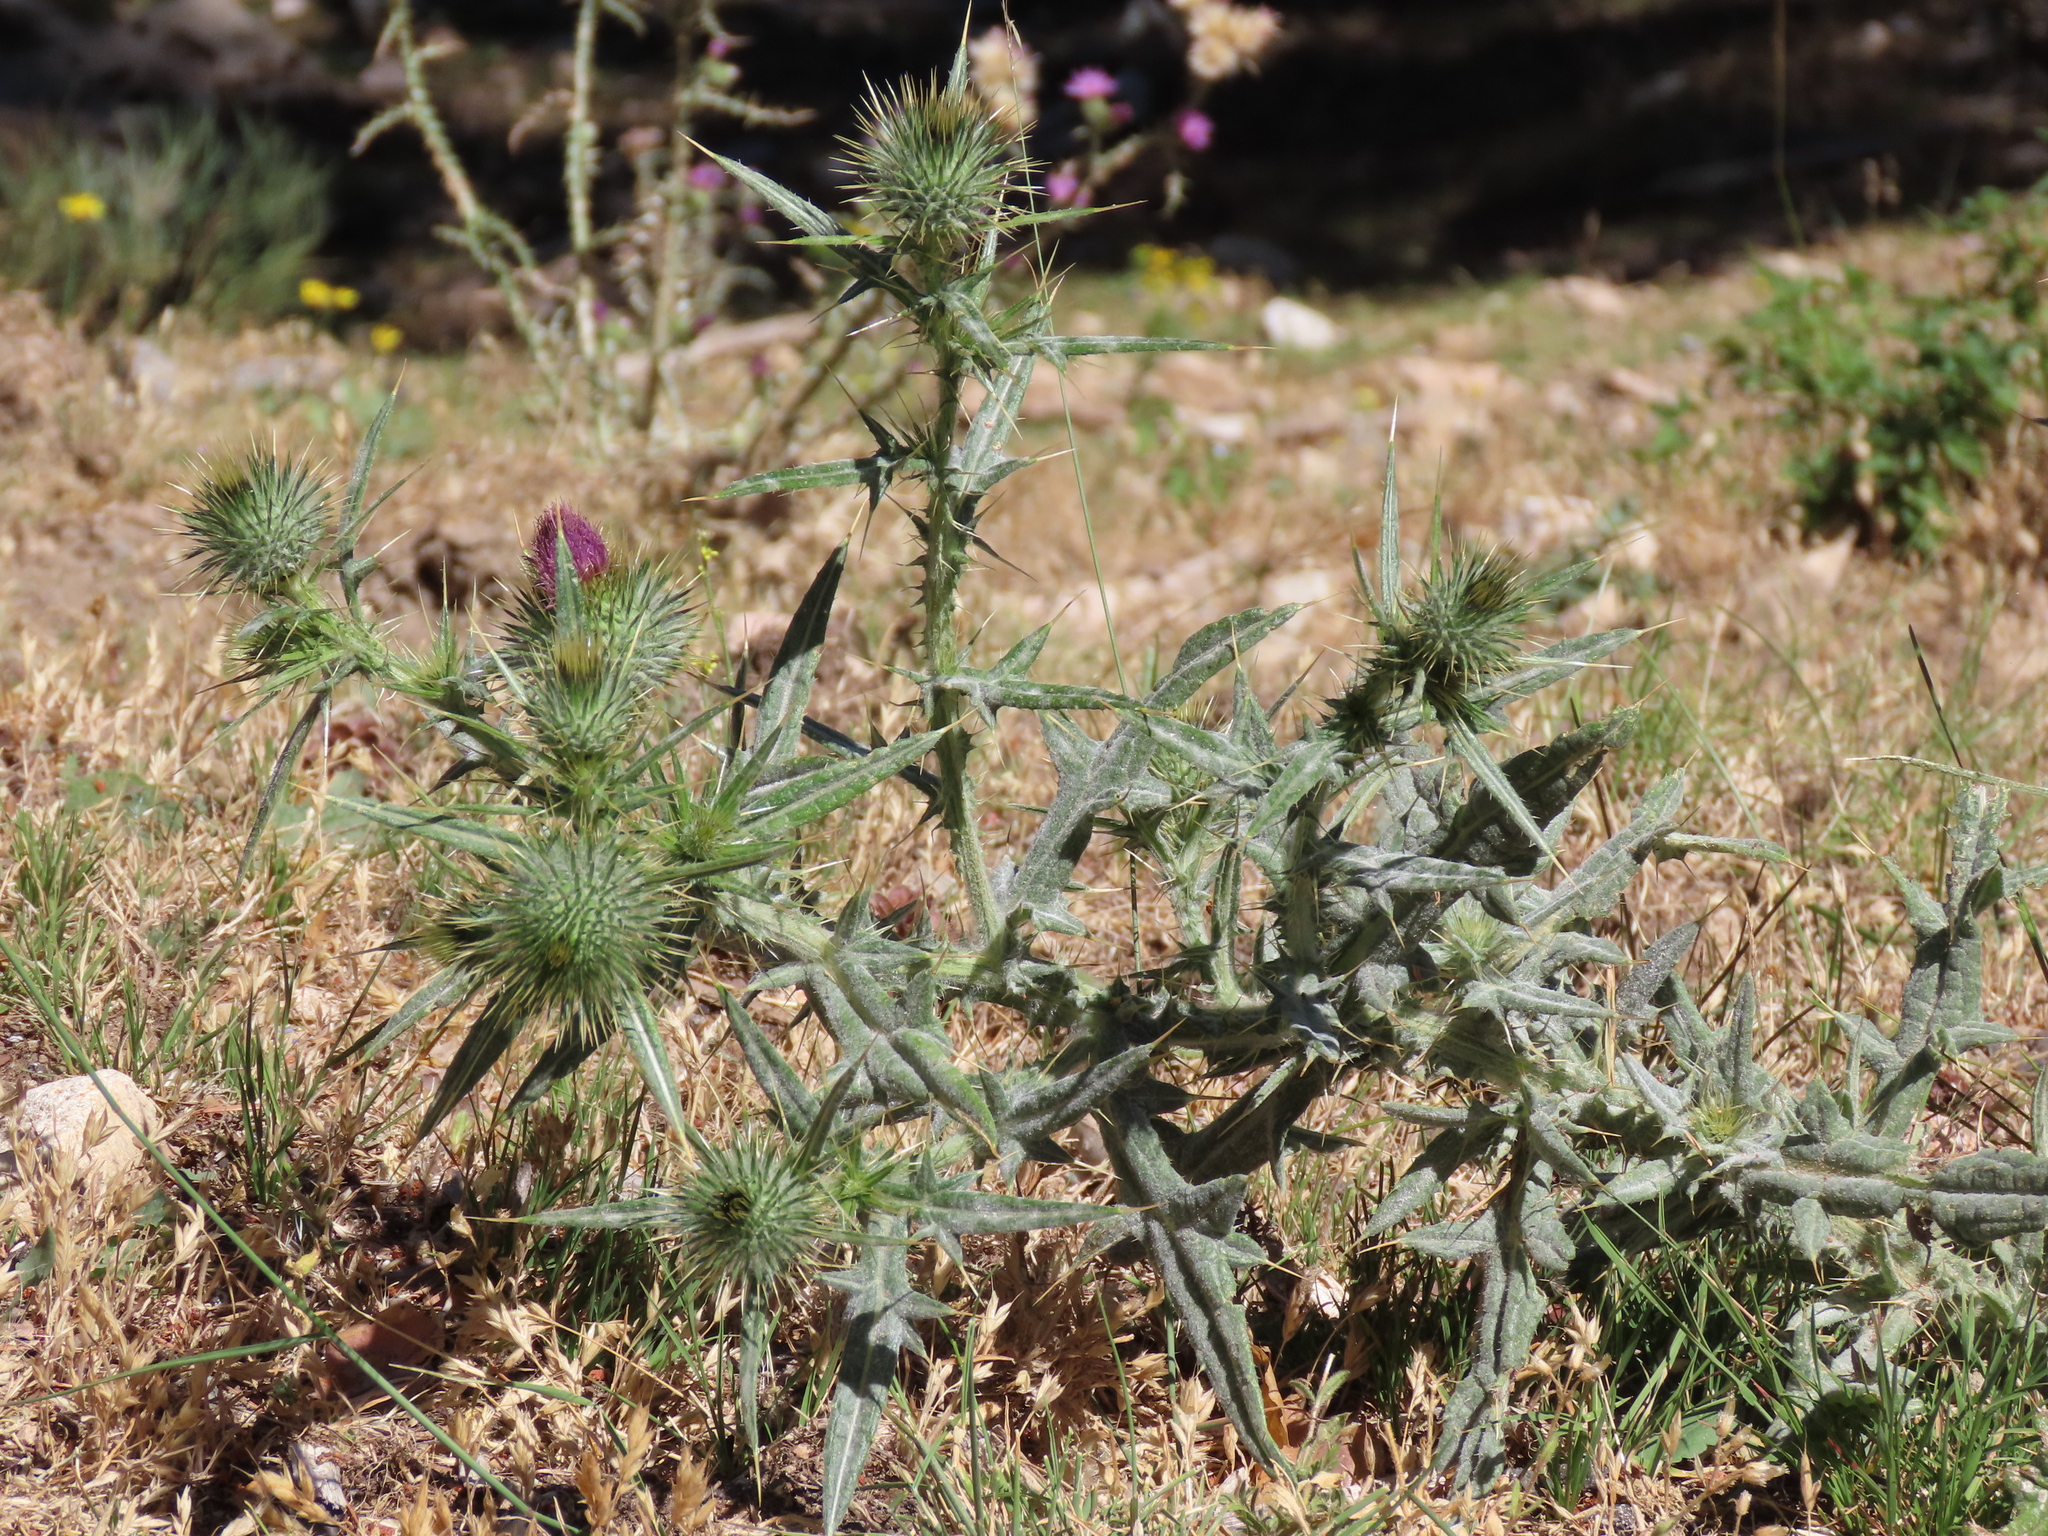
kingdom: Plantae
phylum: Tracheophyta
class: Magnoliopsida
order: Asterales
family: Asteraceae
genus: Cirsium
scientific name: Cirsium vulgare
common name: Bull thistle
